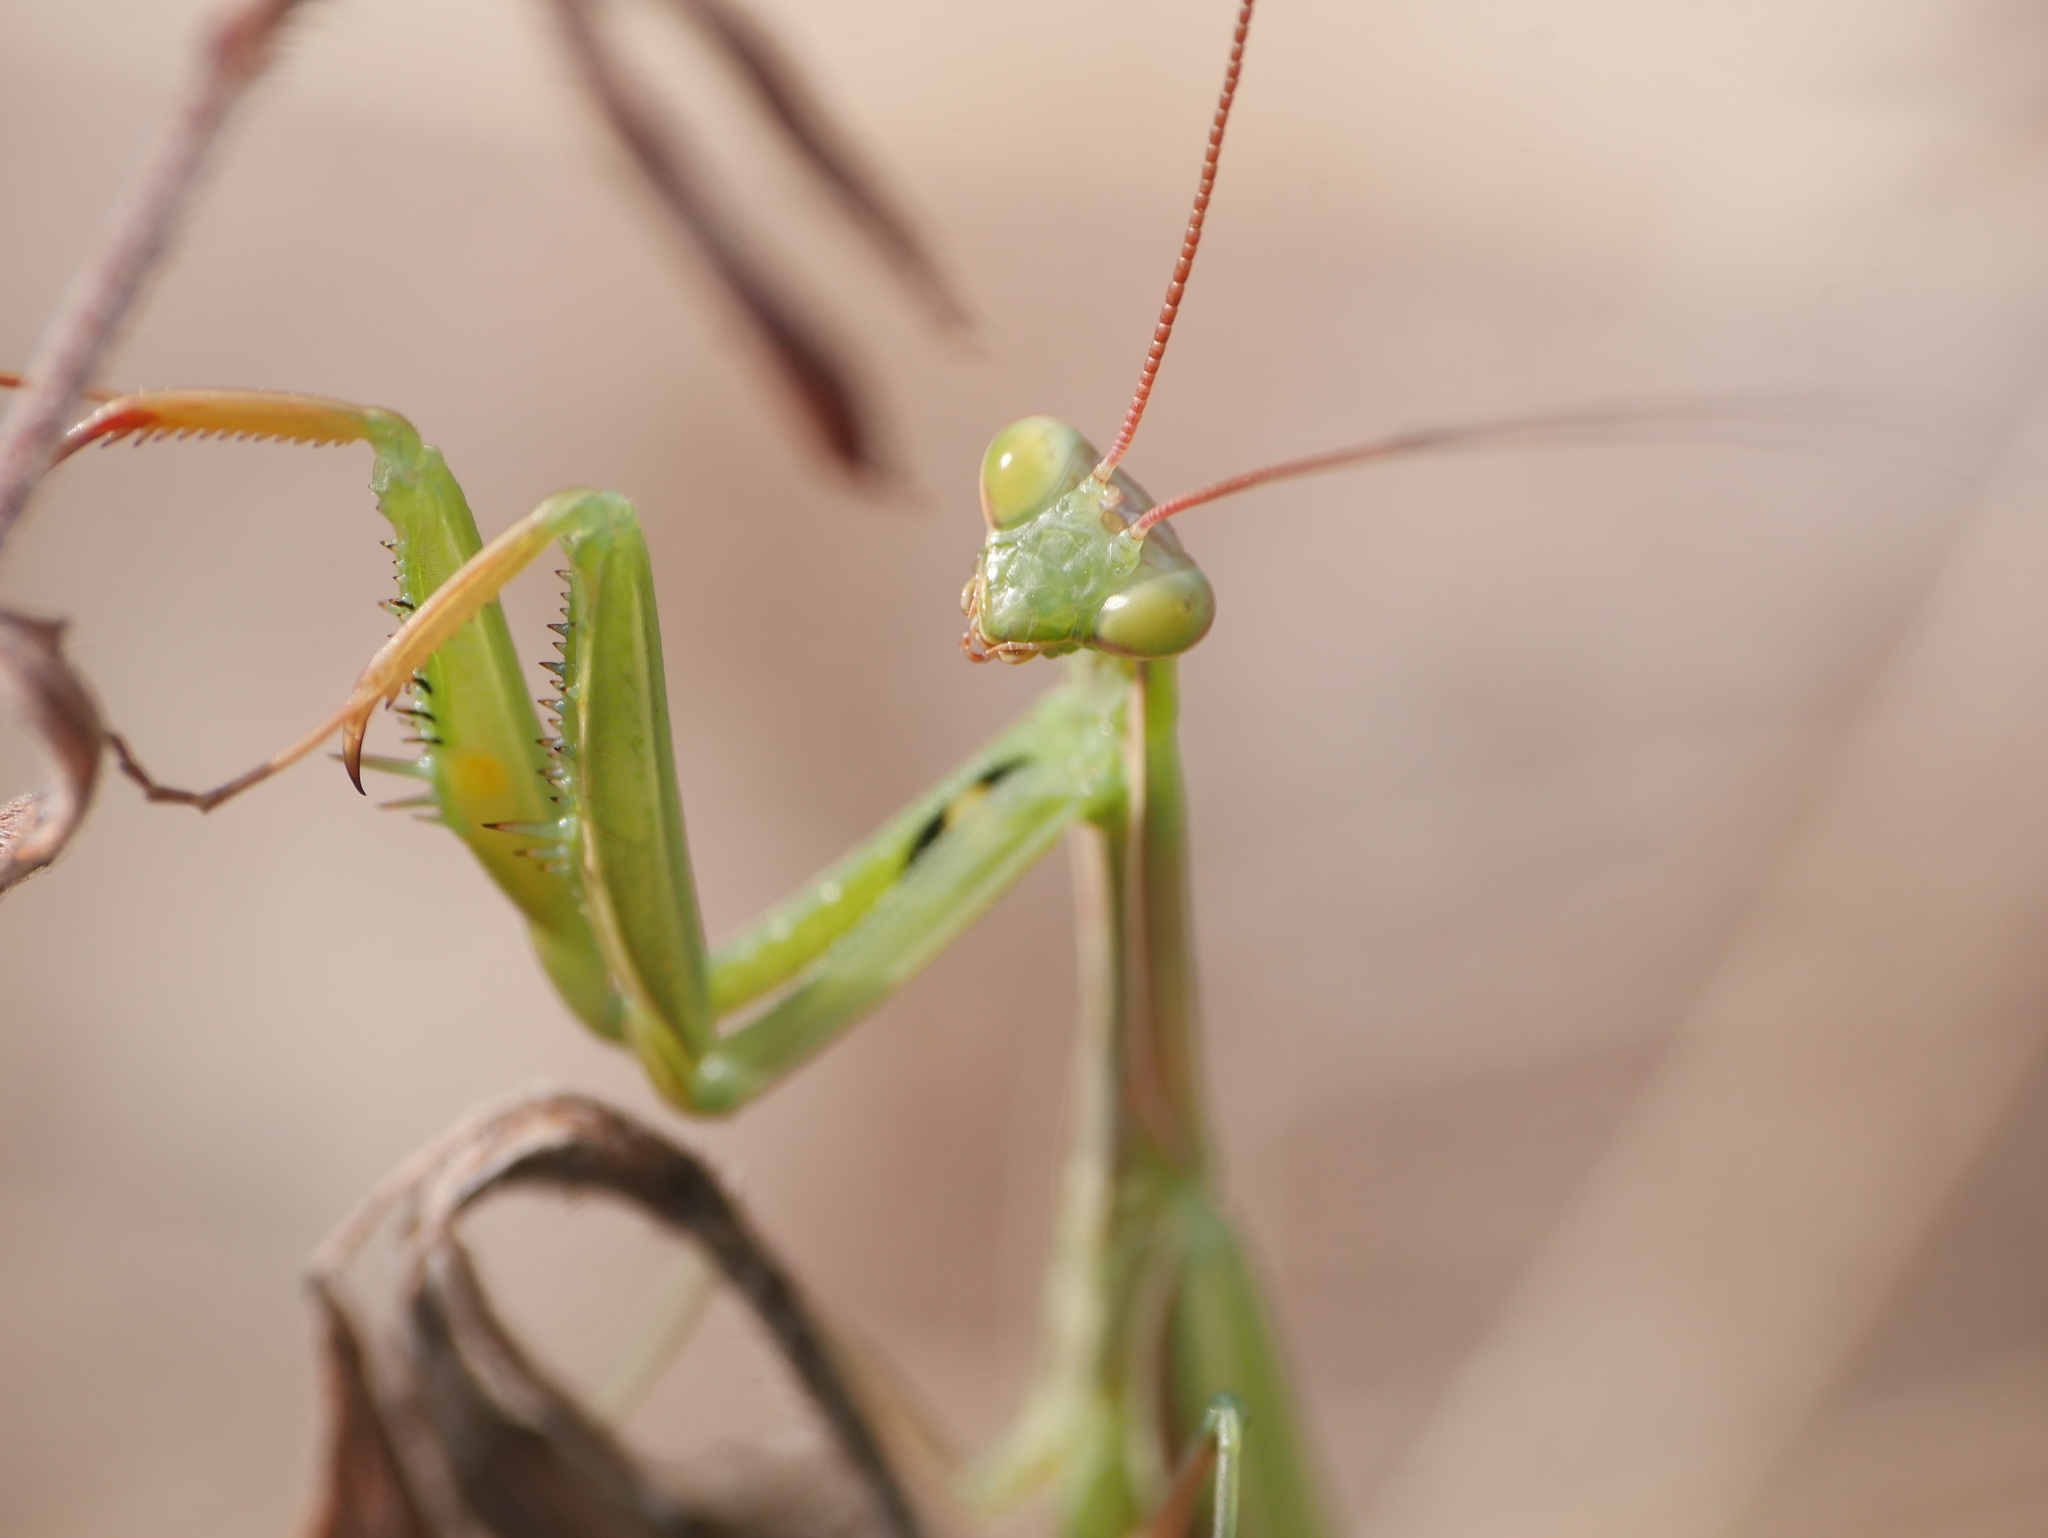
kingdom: Animalia
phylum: Arthropoda
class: Insecta
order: Mantodea
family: Mantidae
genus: Mantis
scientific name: Mantis religiosa
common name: Praying mantis
